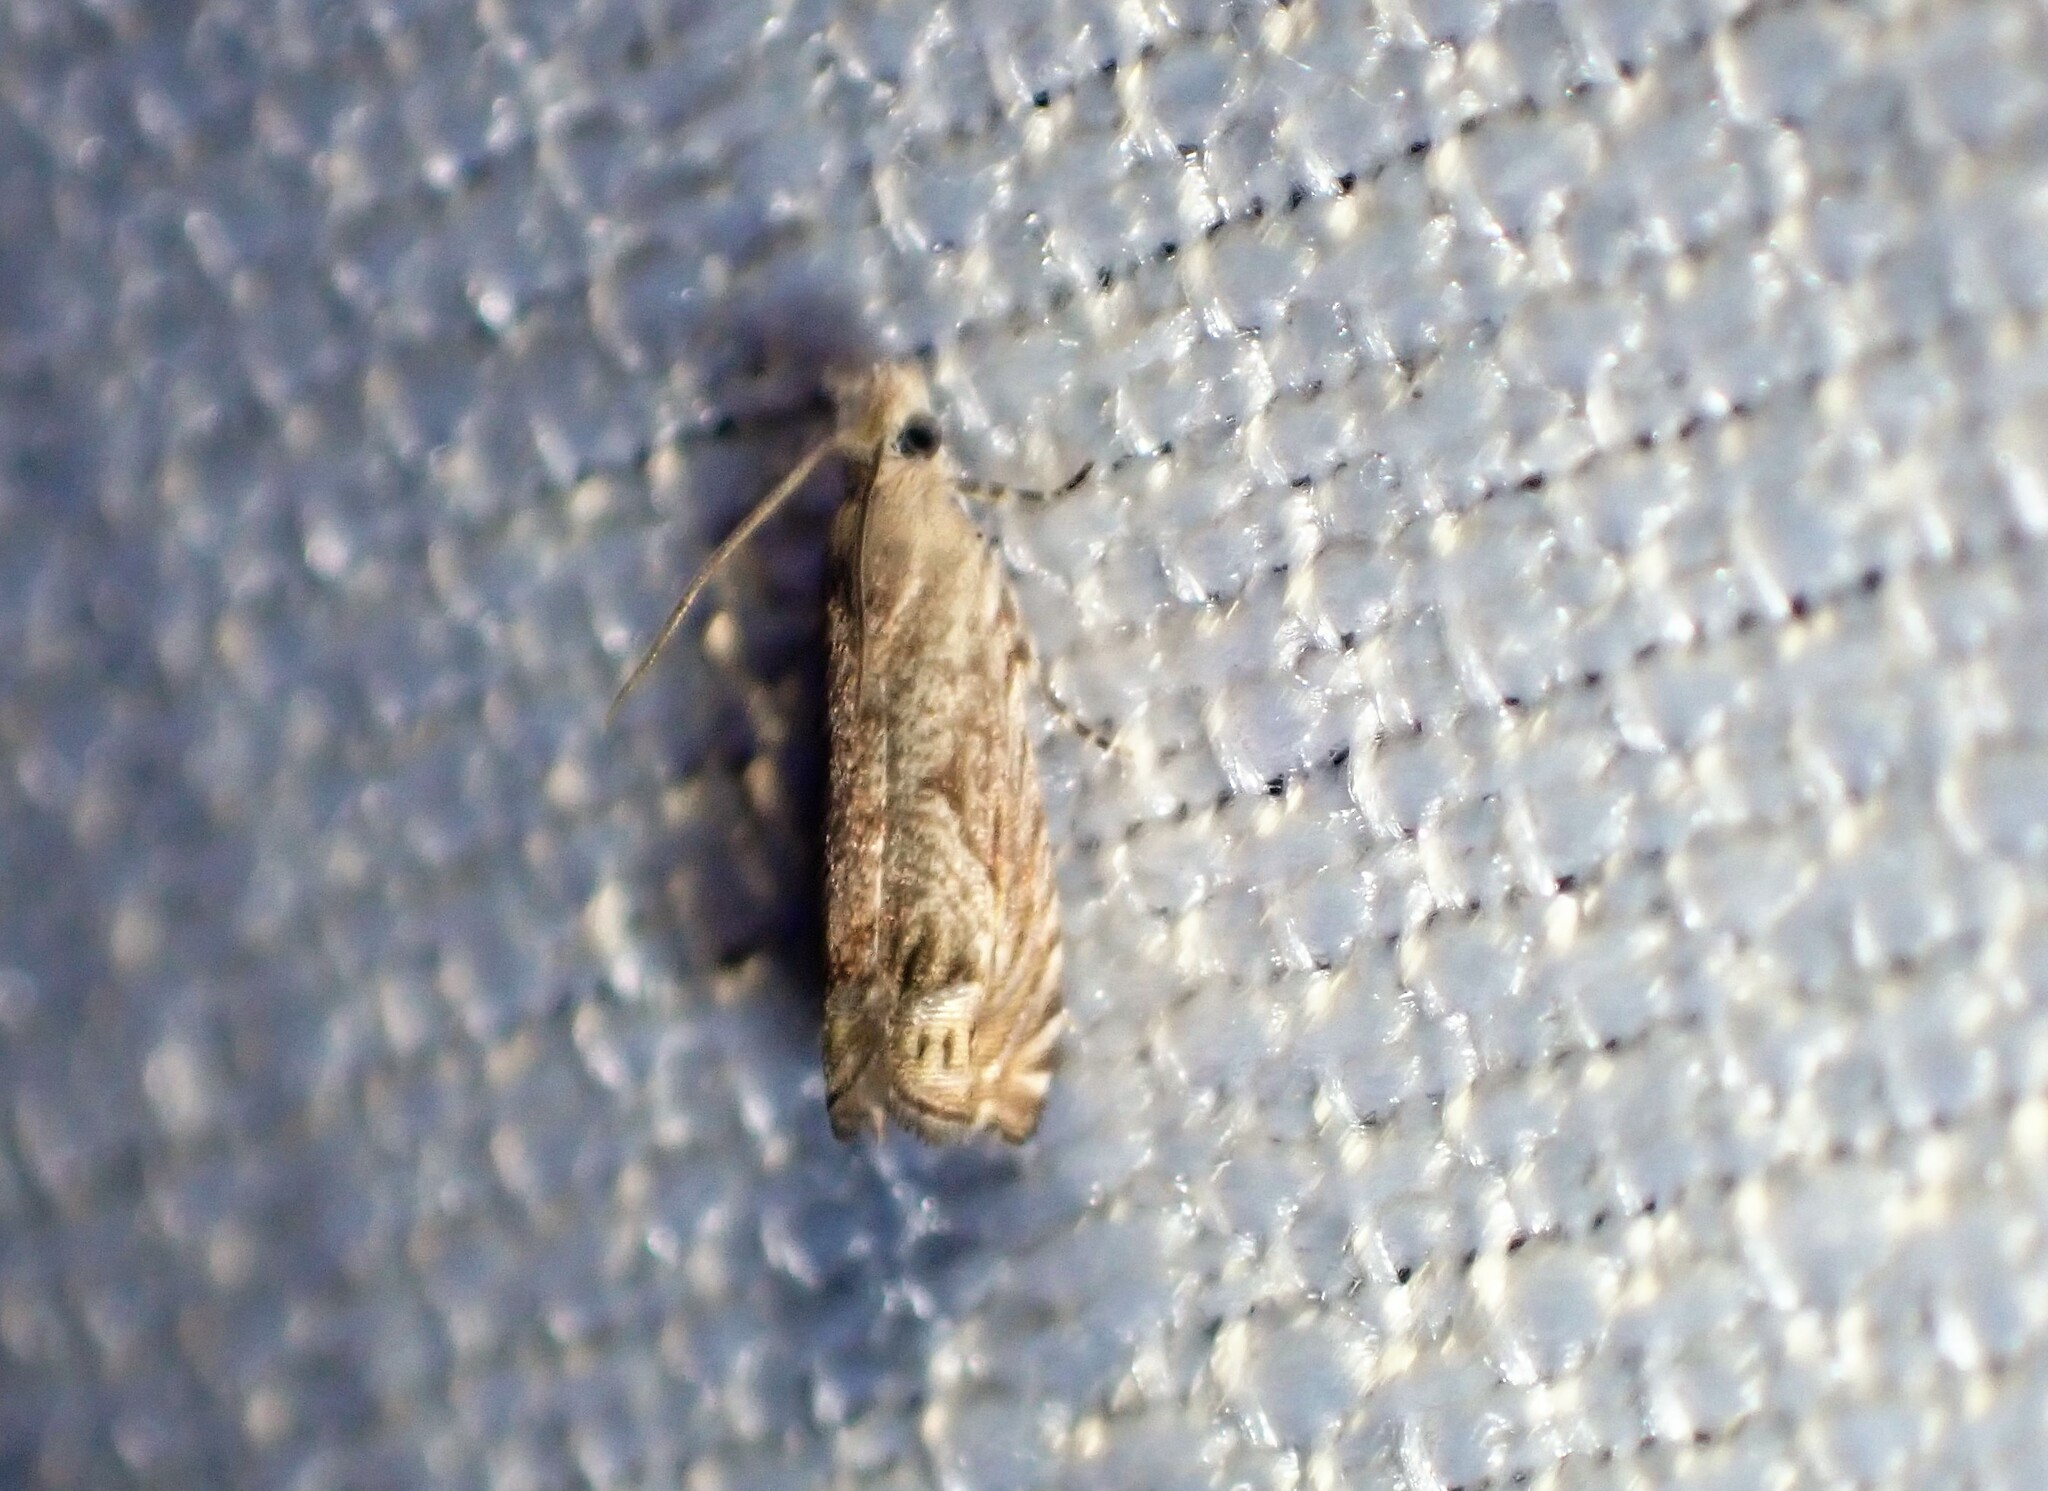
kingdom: Animalia
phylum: Arthropoda
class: Insecta
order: Lepidoptera
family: Tortricidae
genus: Selania
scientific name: Selania leplastriana
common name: Cabbage piercer
